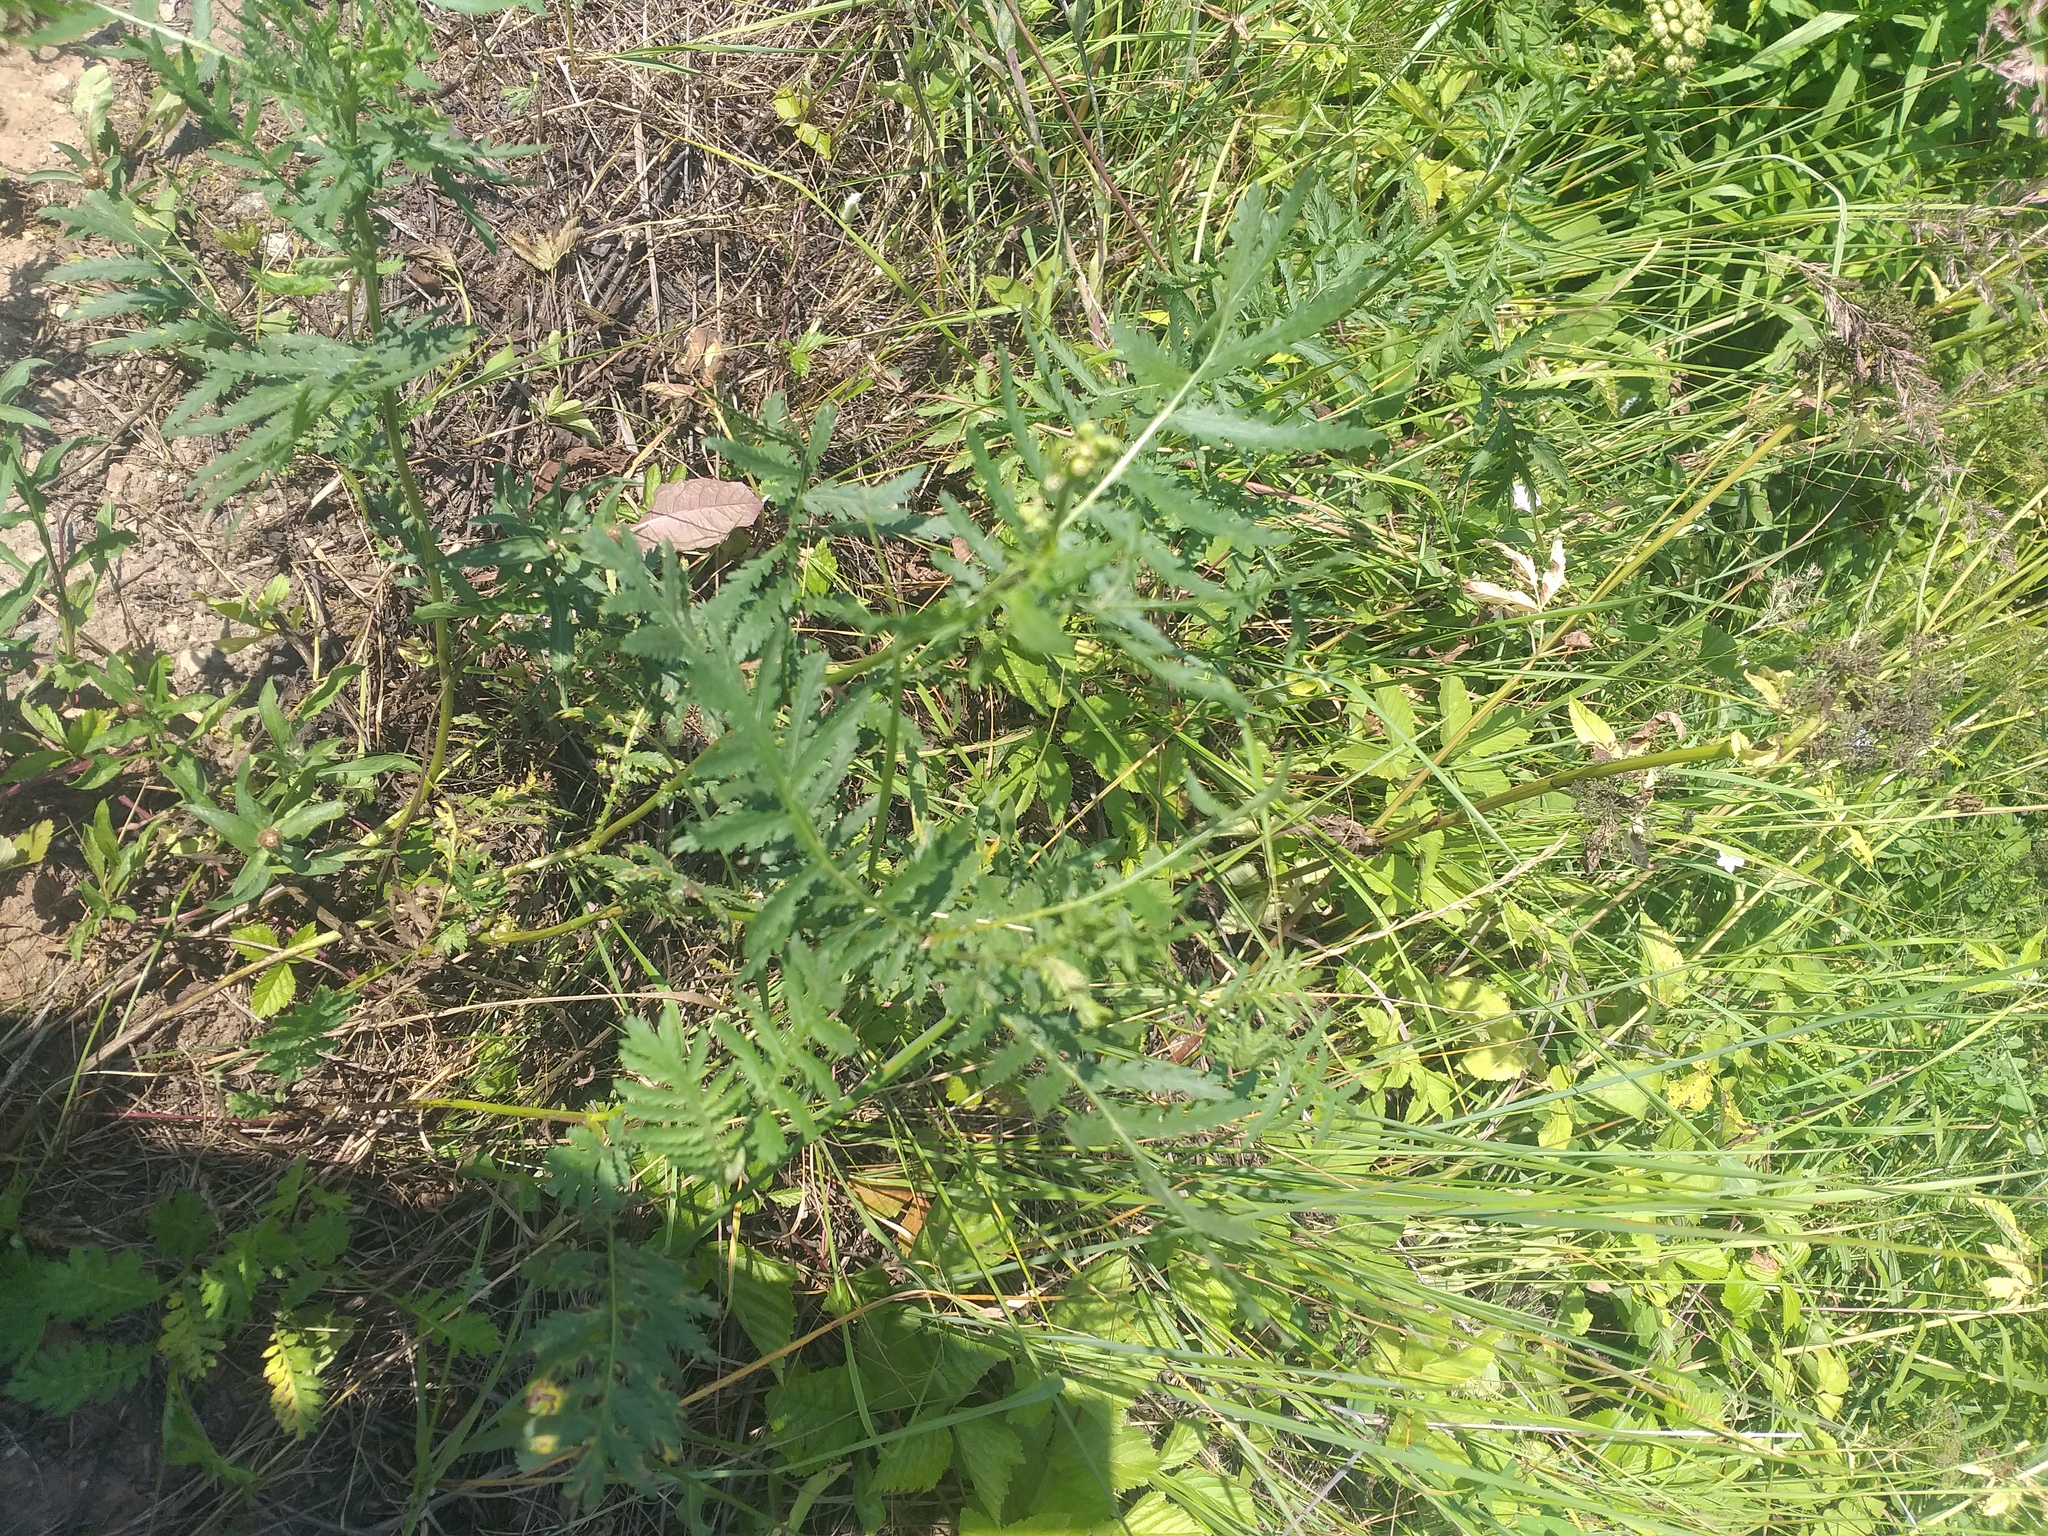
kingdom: Plantae
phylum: Tracheophyta
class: Magnoliopsida
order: Asterales
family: Asteraceae
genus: Tanacetum
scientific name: Tanacetum vulgare
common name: Common tansy
